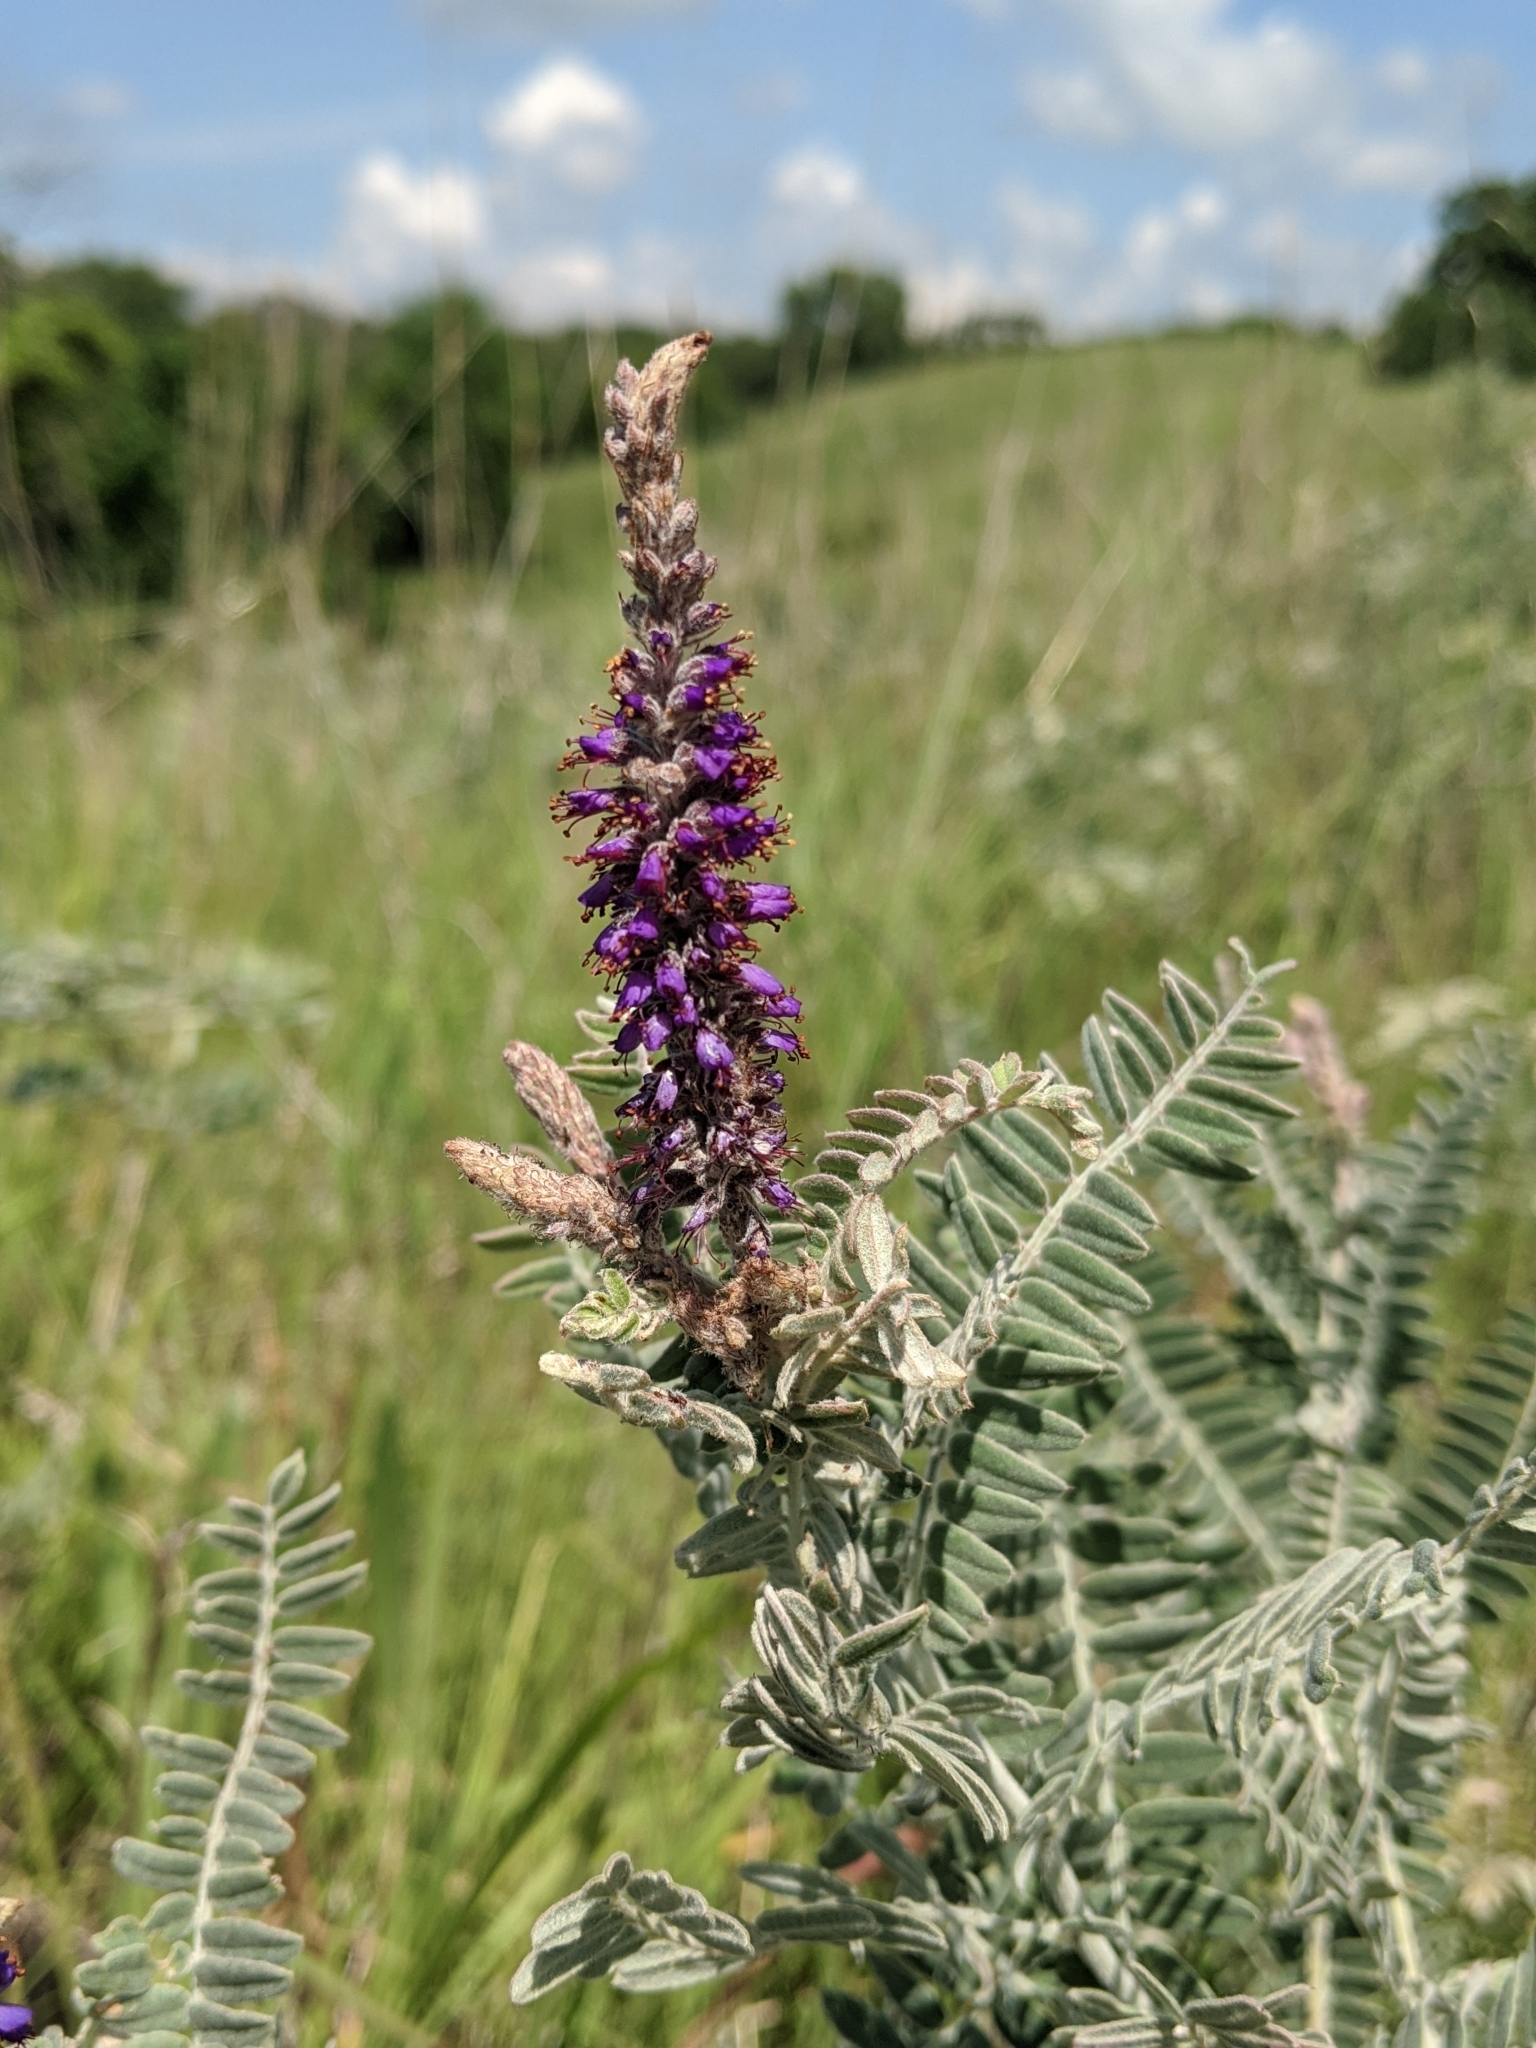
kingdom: Plantae
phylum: Tracheophyta
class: Magnoliopsida
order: Fabales
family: Fabaceae
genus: Amorpha
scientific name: Amorpha canescens
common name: Leadplant
